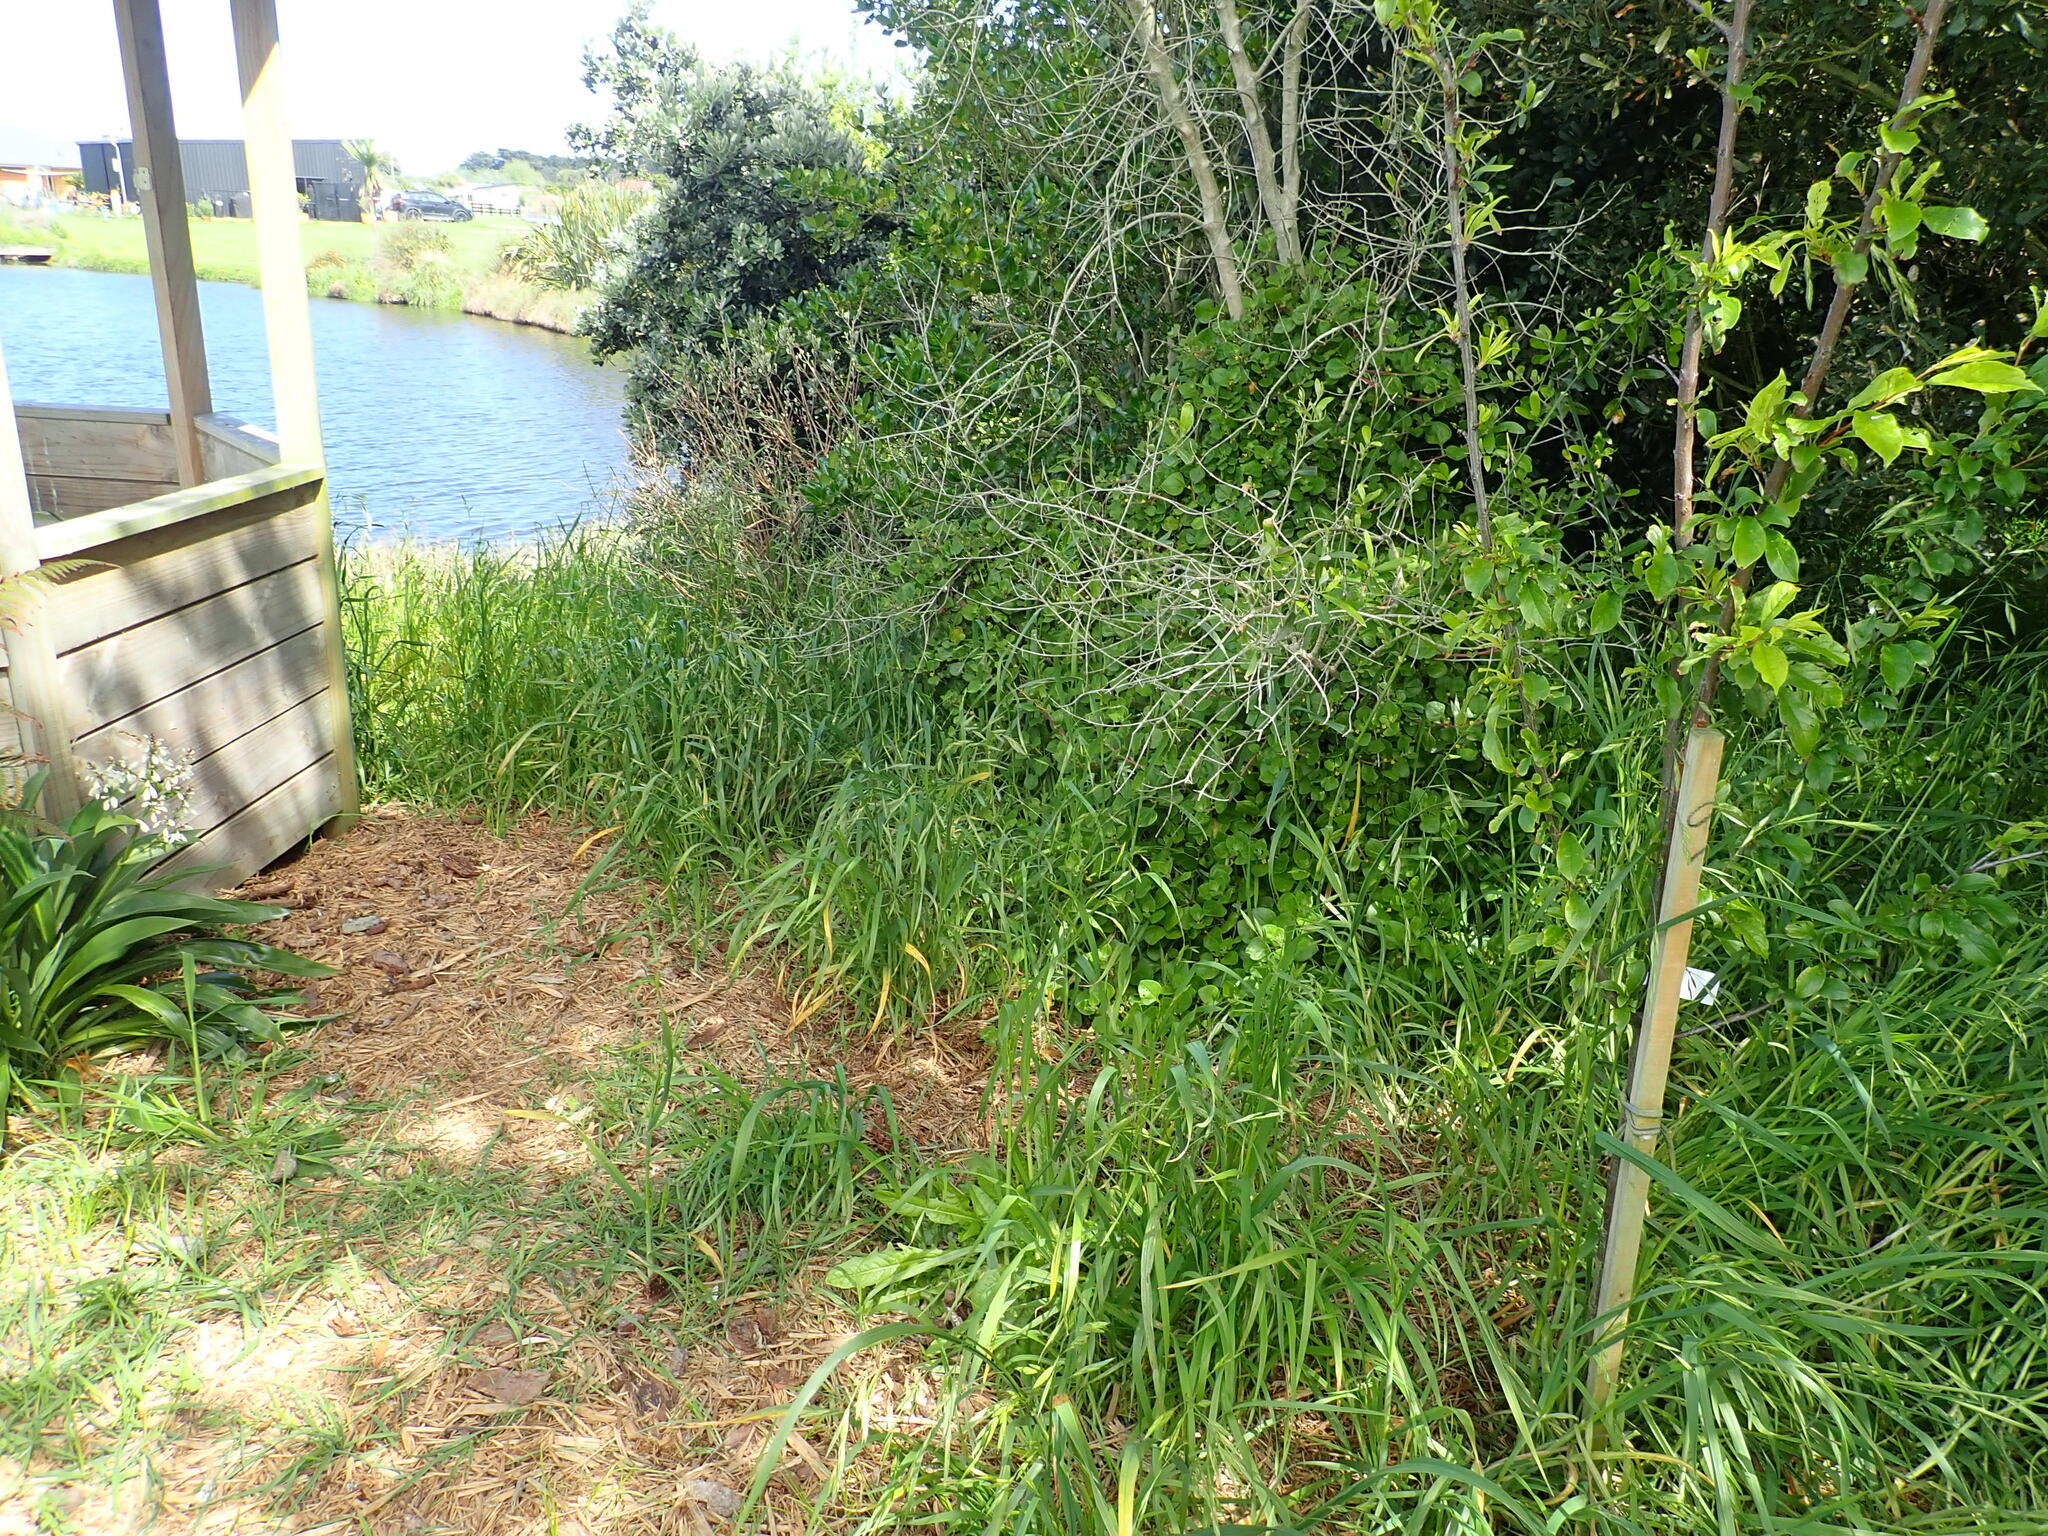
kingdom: Plantae
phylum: Tracheophyta
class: Magnoliopsida
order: Caryophyllales
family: Aizoaceae
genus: Tetragonia
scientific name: Tetragonia implexicoma
